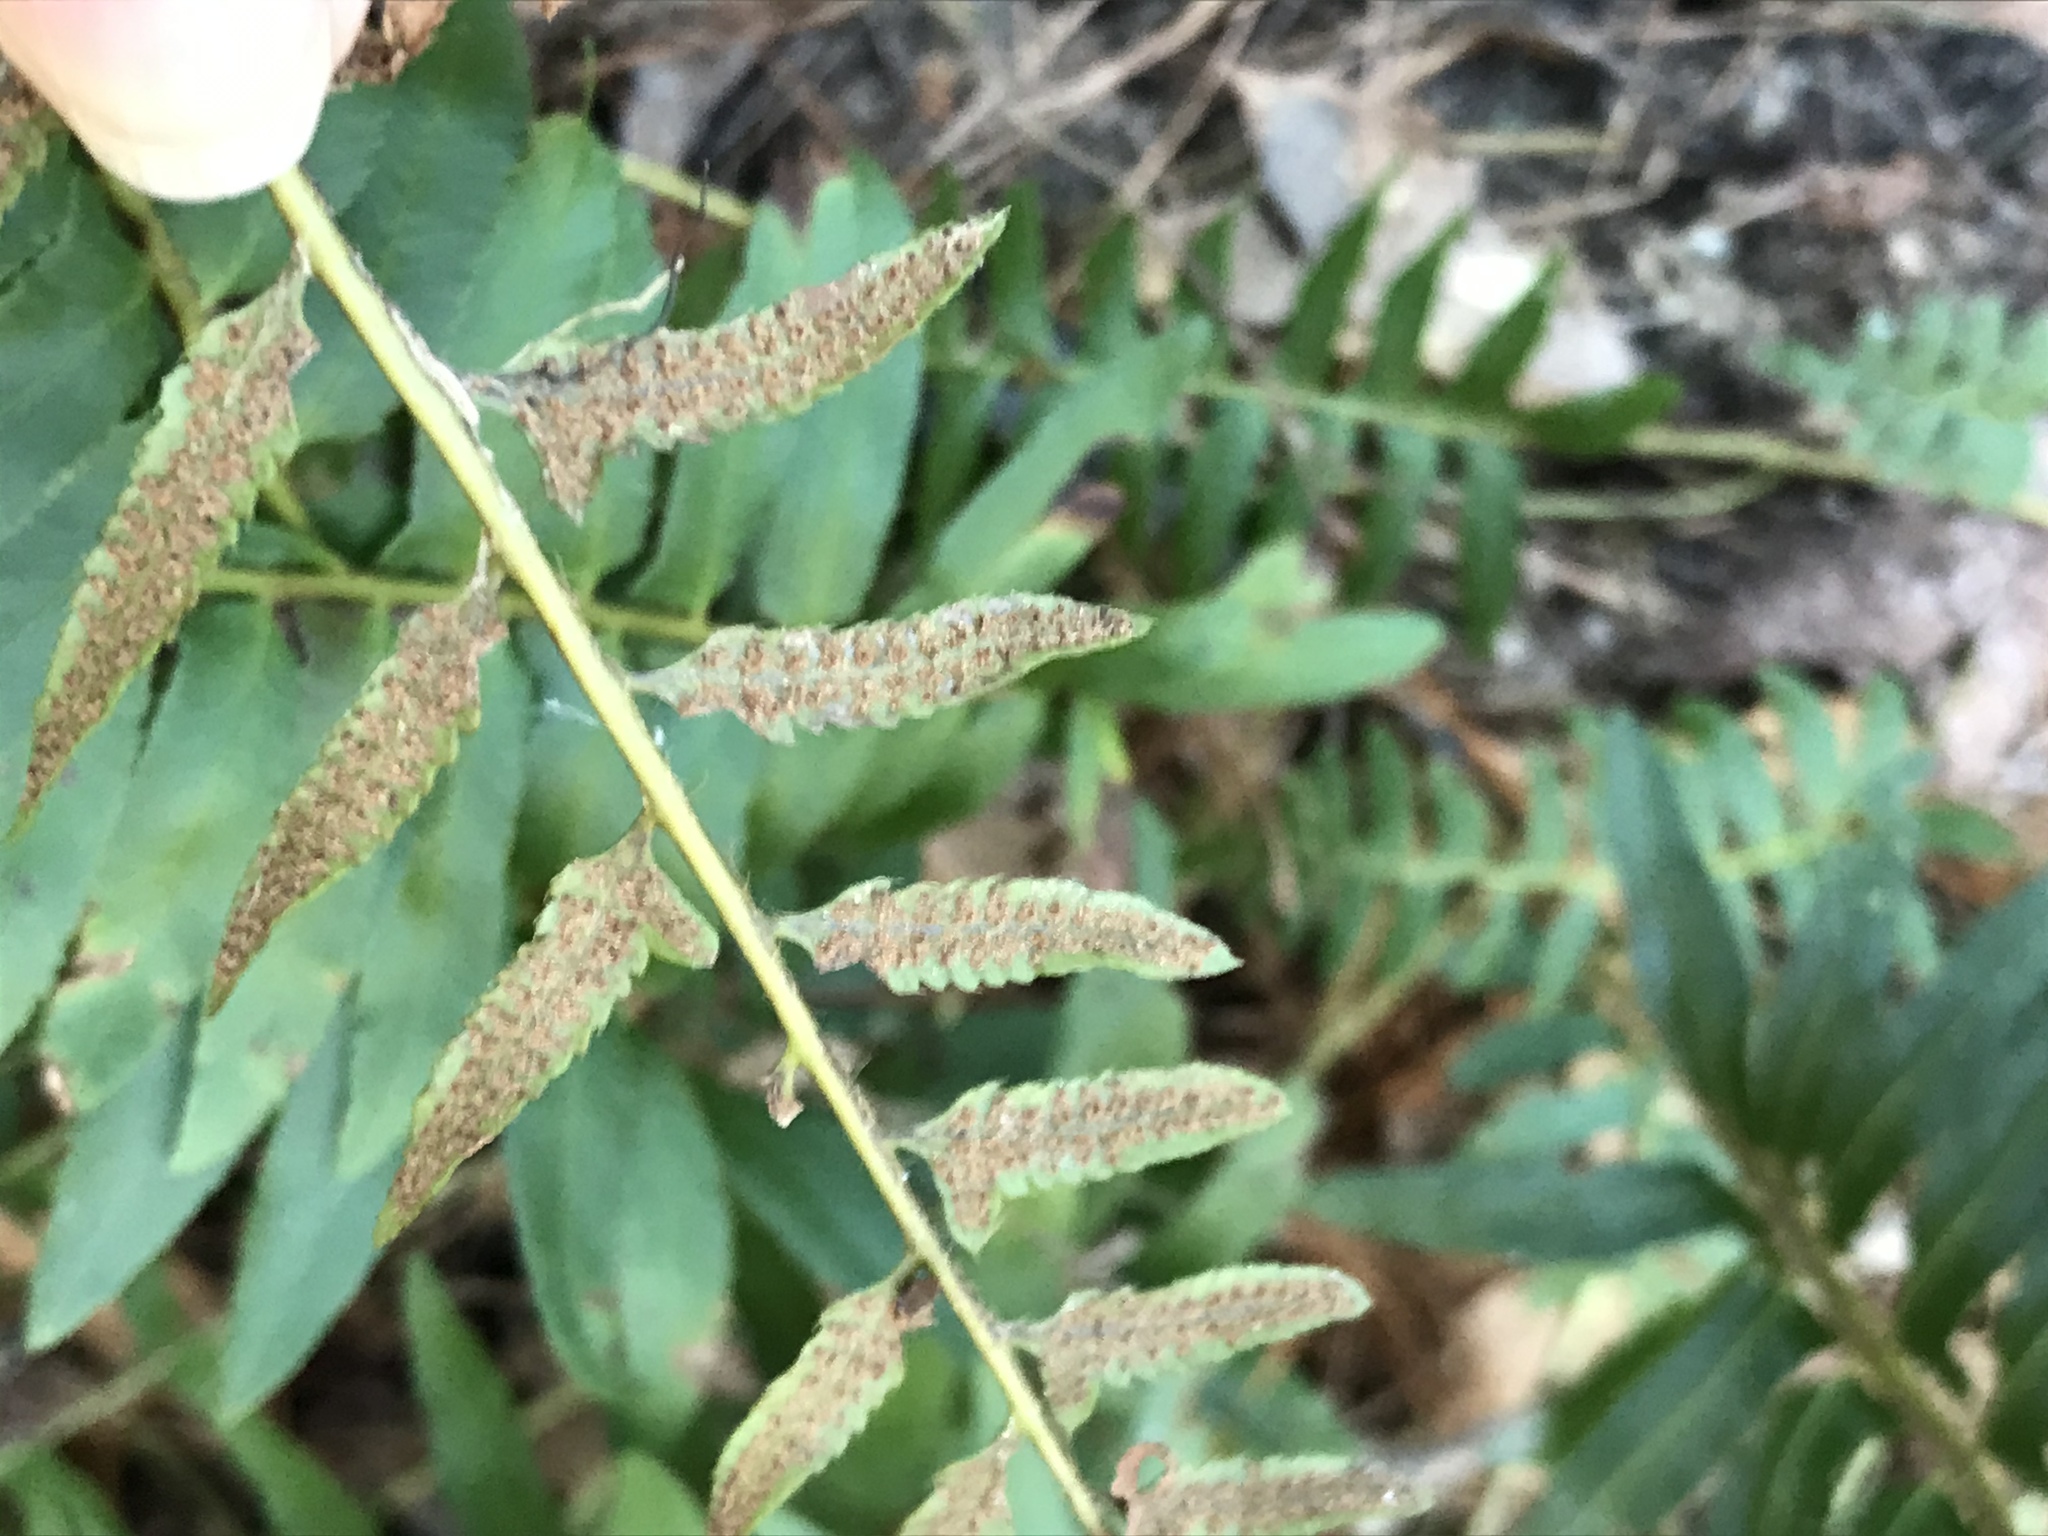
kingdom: Plantae
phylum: Tracheophyta
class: Polypodiopsida
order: Polypodiales
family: Dryopteridaceae
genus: Polystichum
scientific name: Polystichum acrostichoides
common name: Christmas fern
